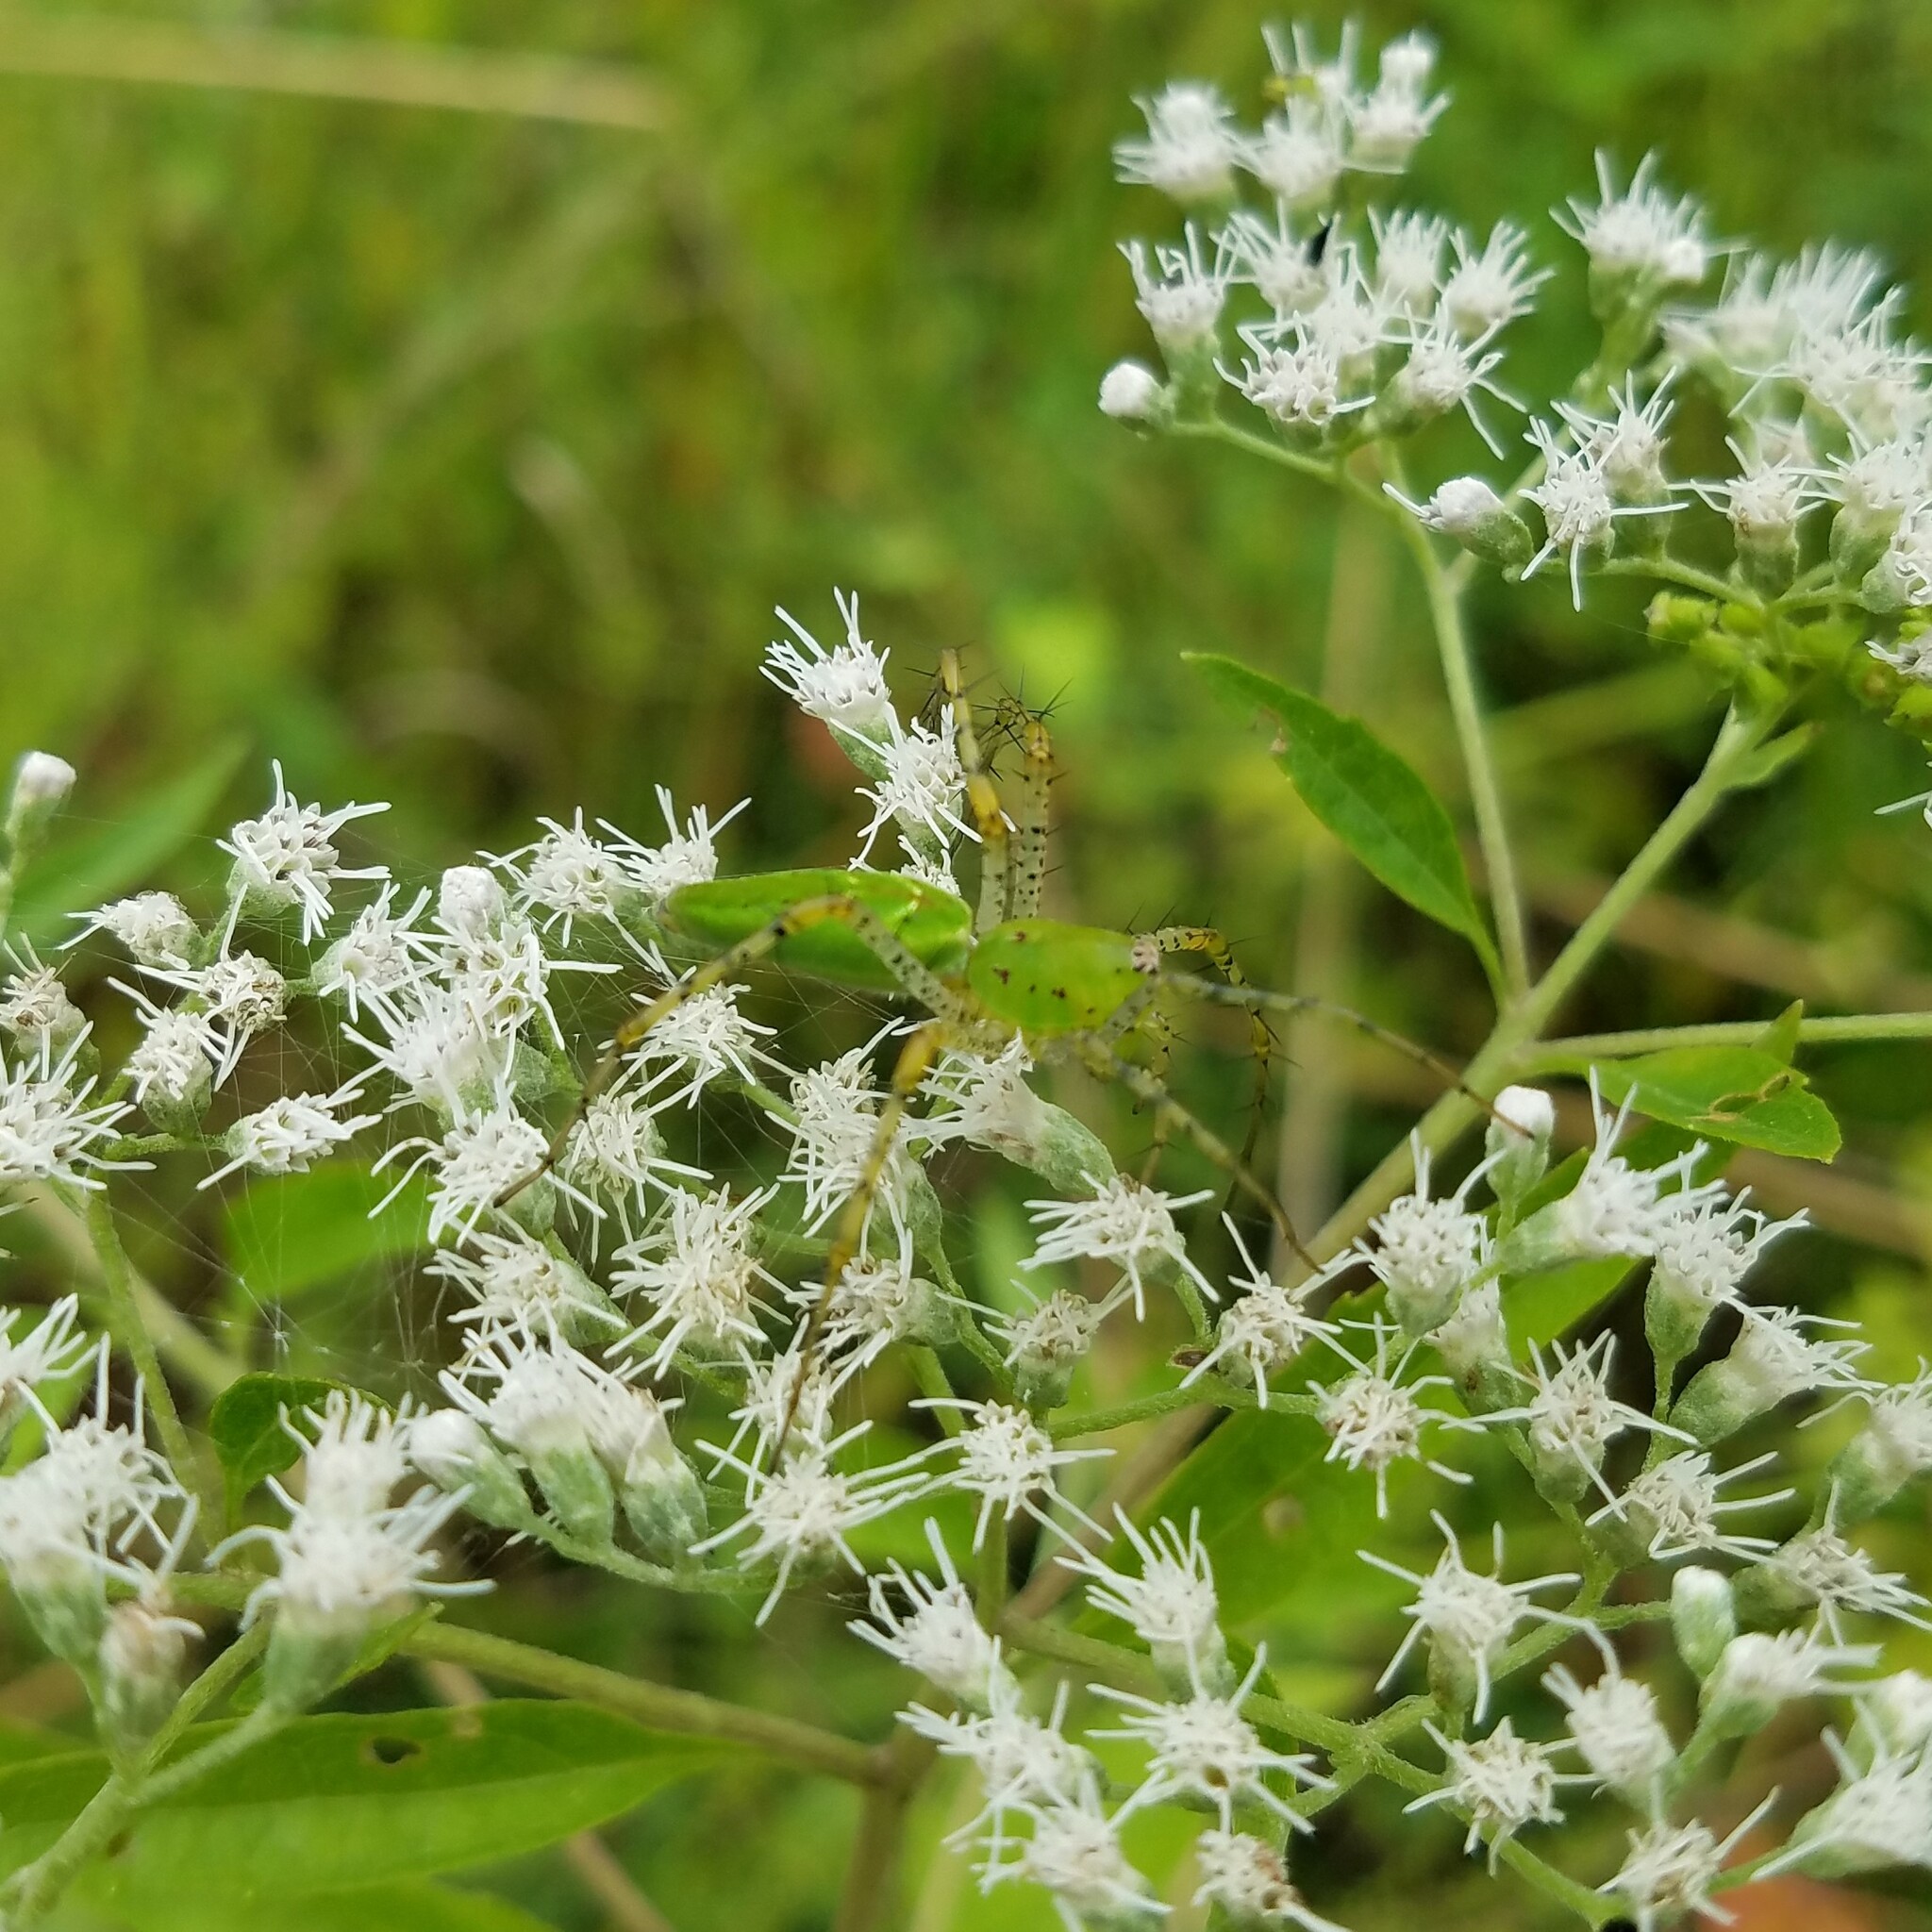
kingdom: Animalia
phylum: Arthropoda
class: Arachnida
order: Araneae
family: Oxyopidae
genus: Peucetia
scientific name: Peucetia viridans
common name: Lynx spiders
